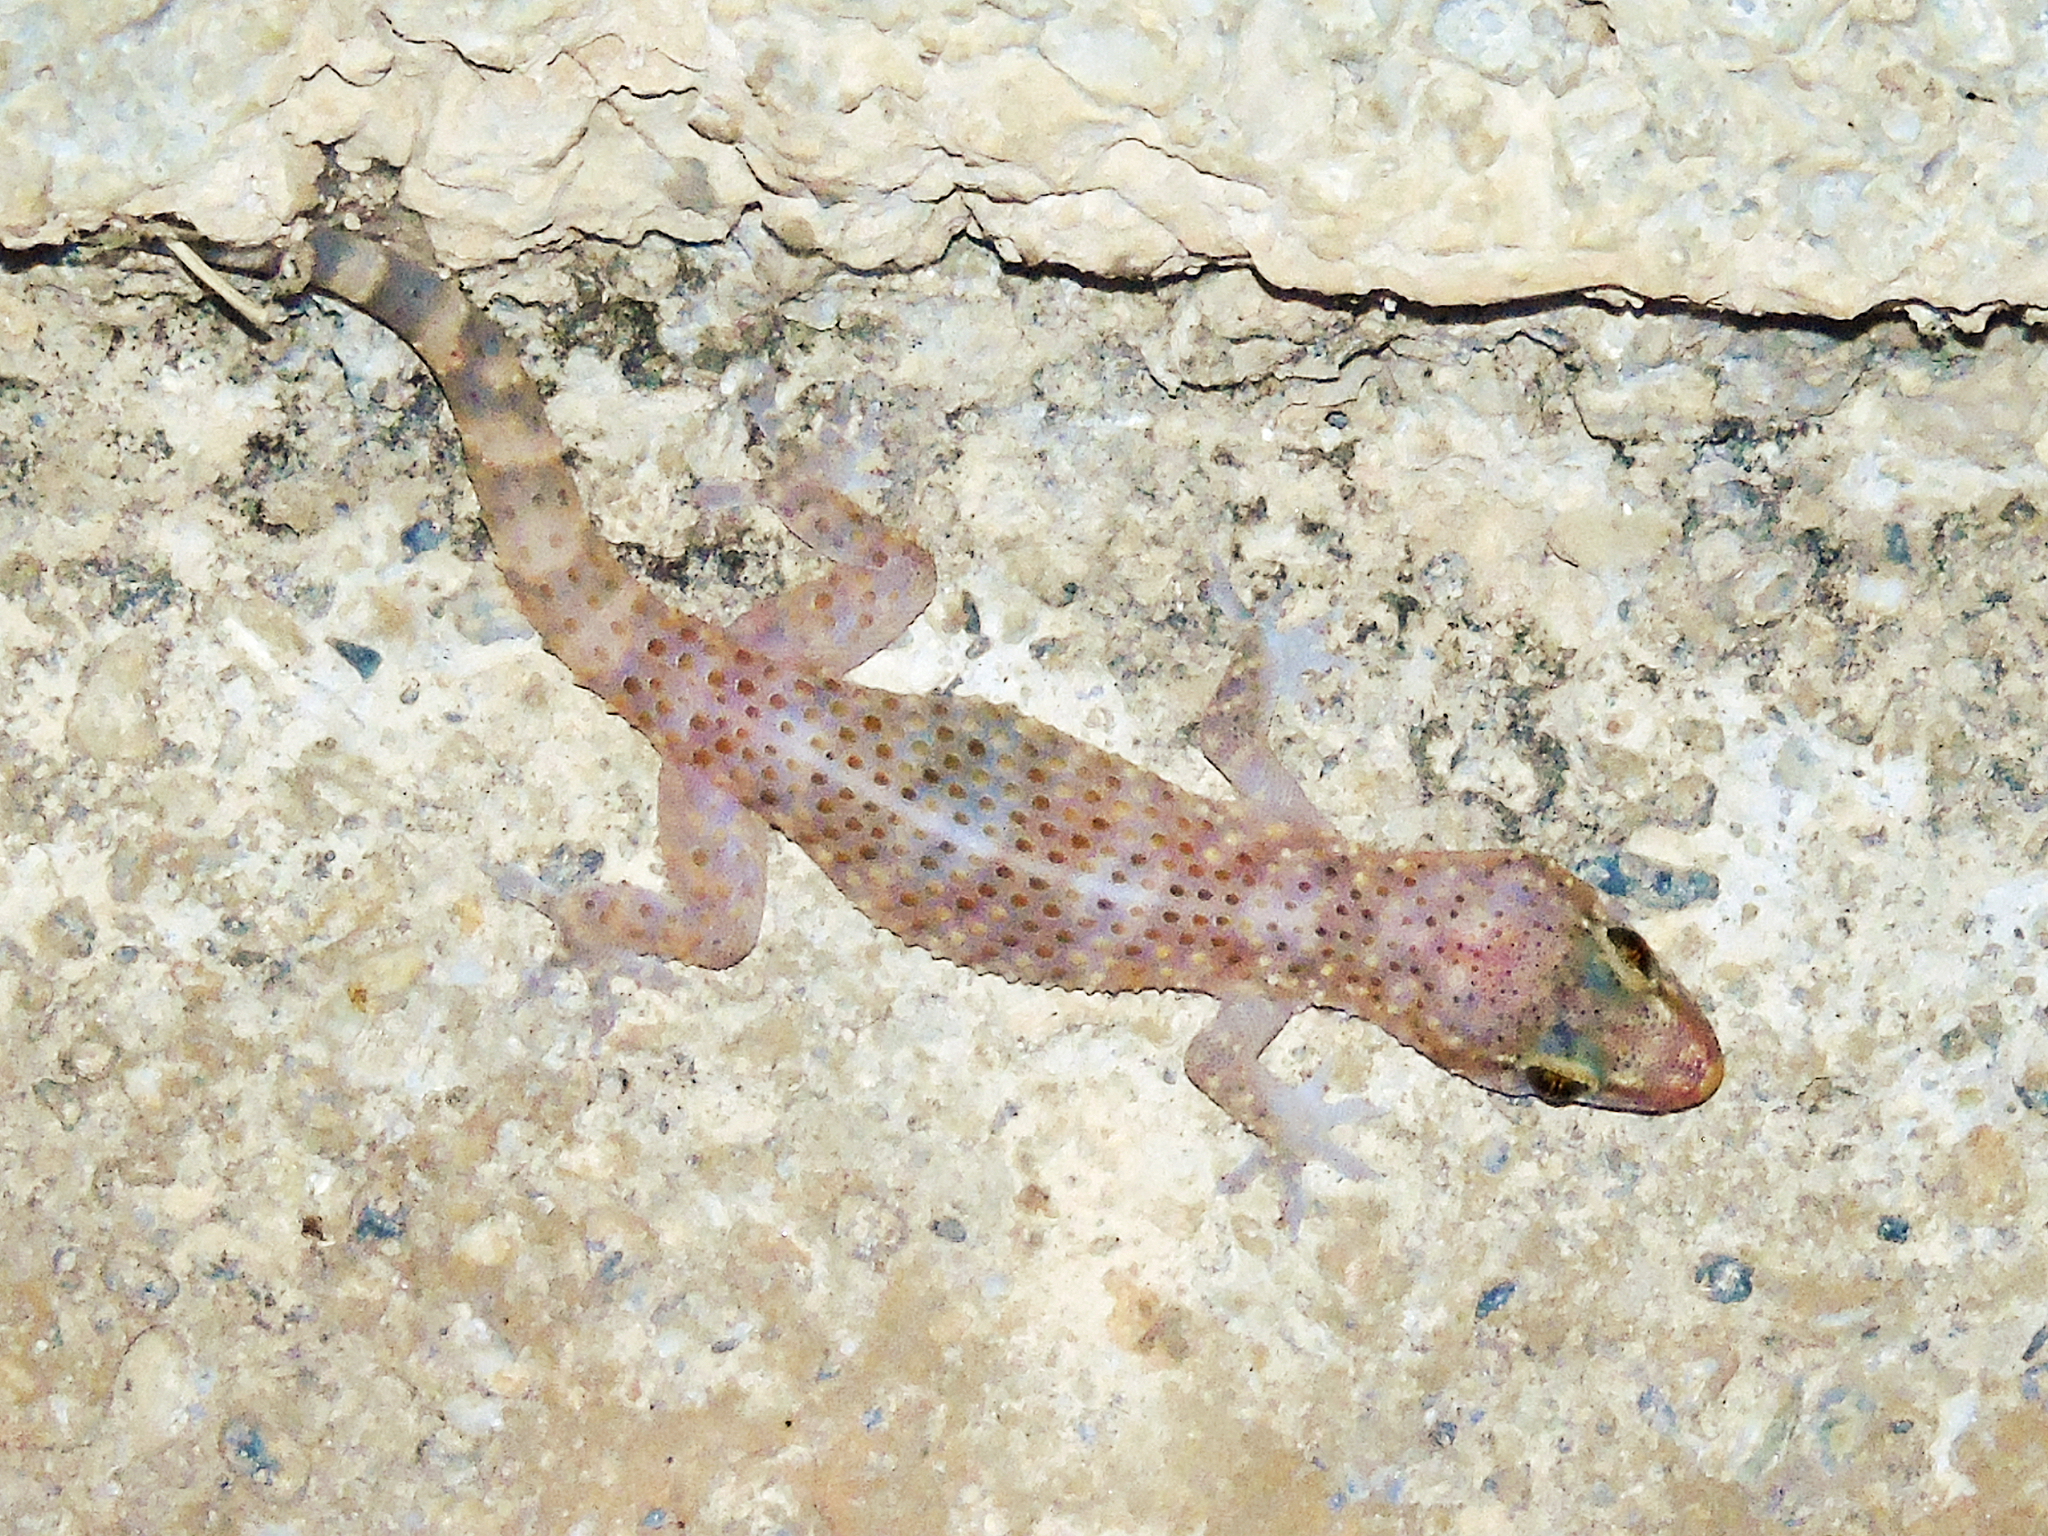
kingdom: Animalia
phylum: Chordata
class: Squamata
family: Gekkonidae
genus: Hemidactylus
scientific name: Hemidactylus turcicus
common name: Turkish gecko
